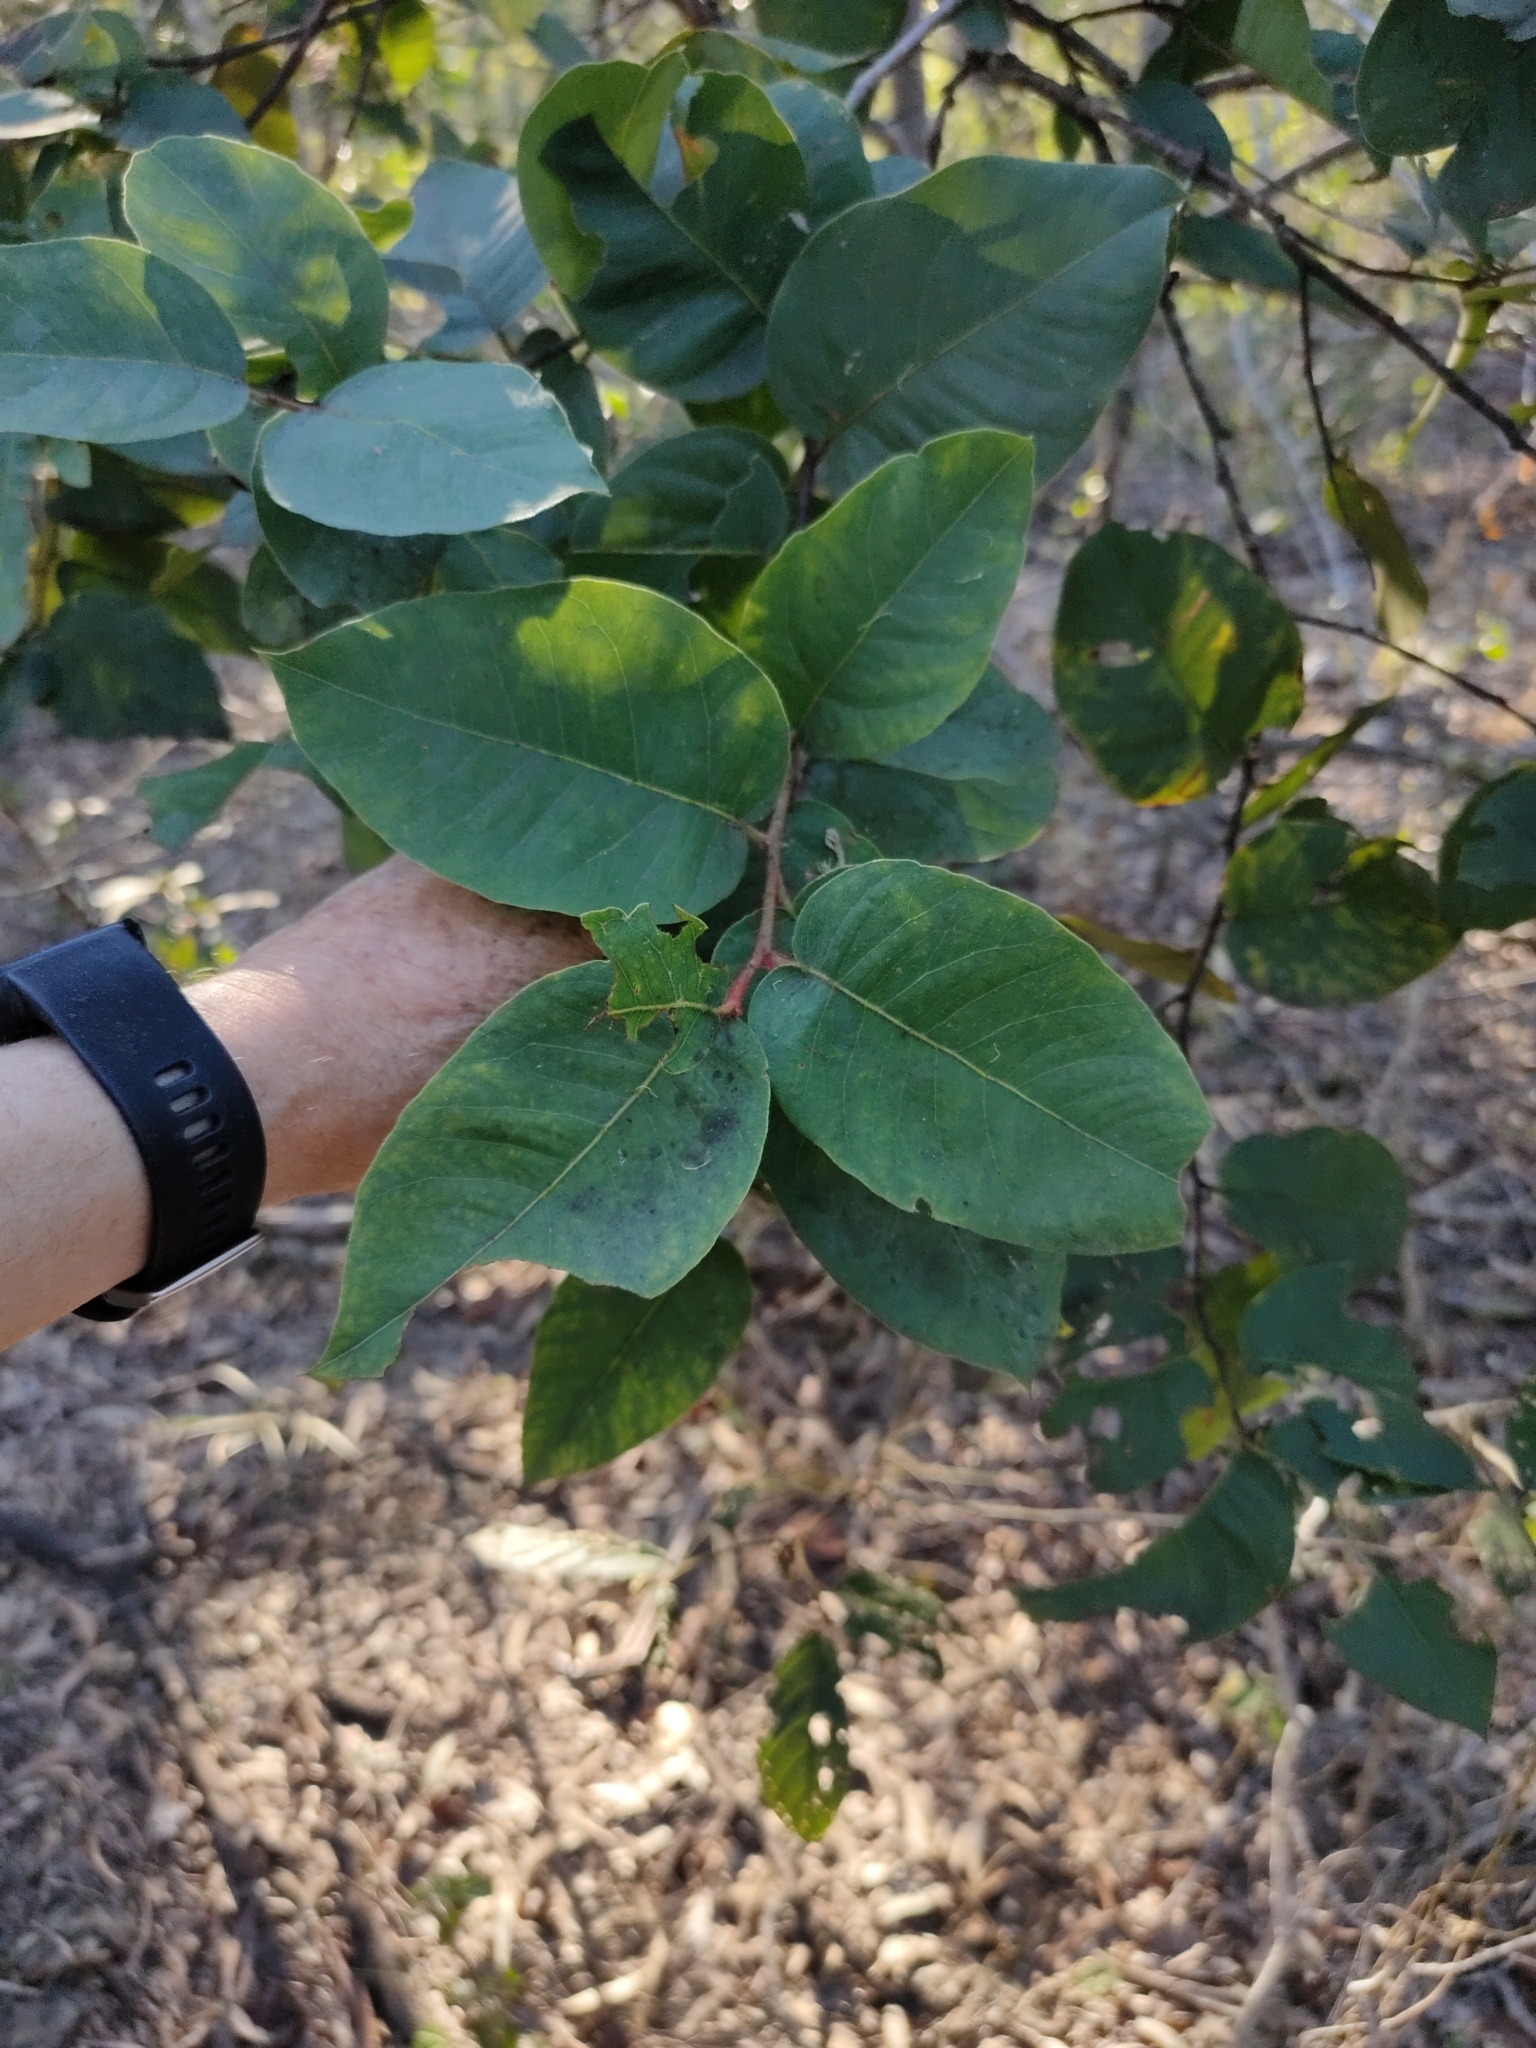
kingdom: Plantae
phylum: Tracheophyta
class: Magnoliopsida
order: Myrtales
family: Myrtaceae
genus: Corymbia
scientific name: Corymbia torelliana
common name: Cadaghi
